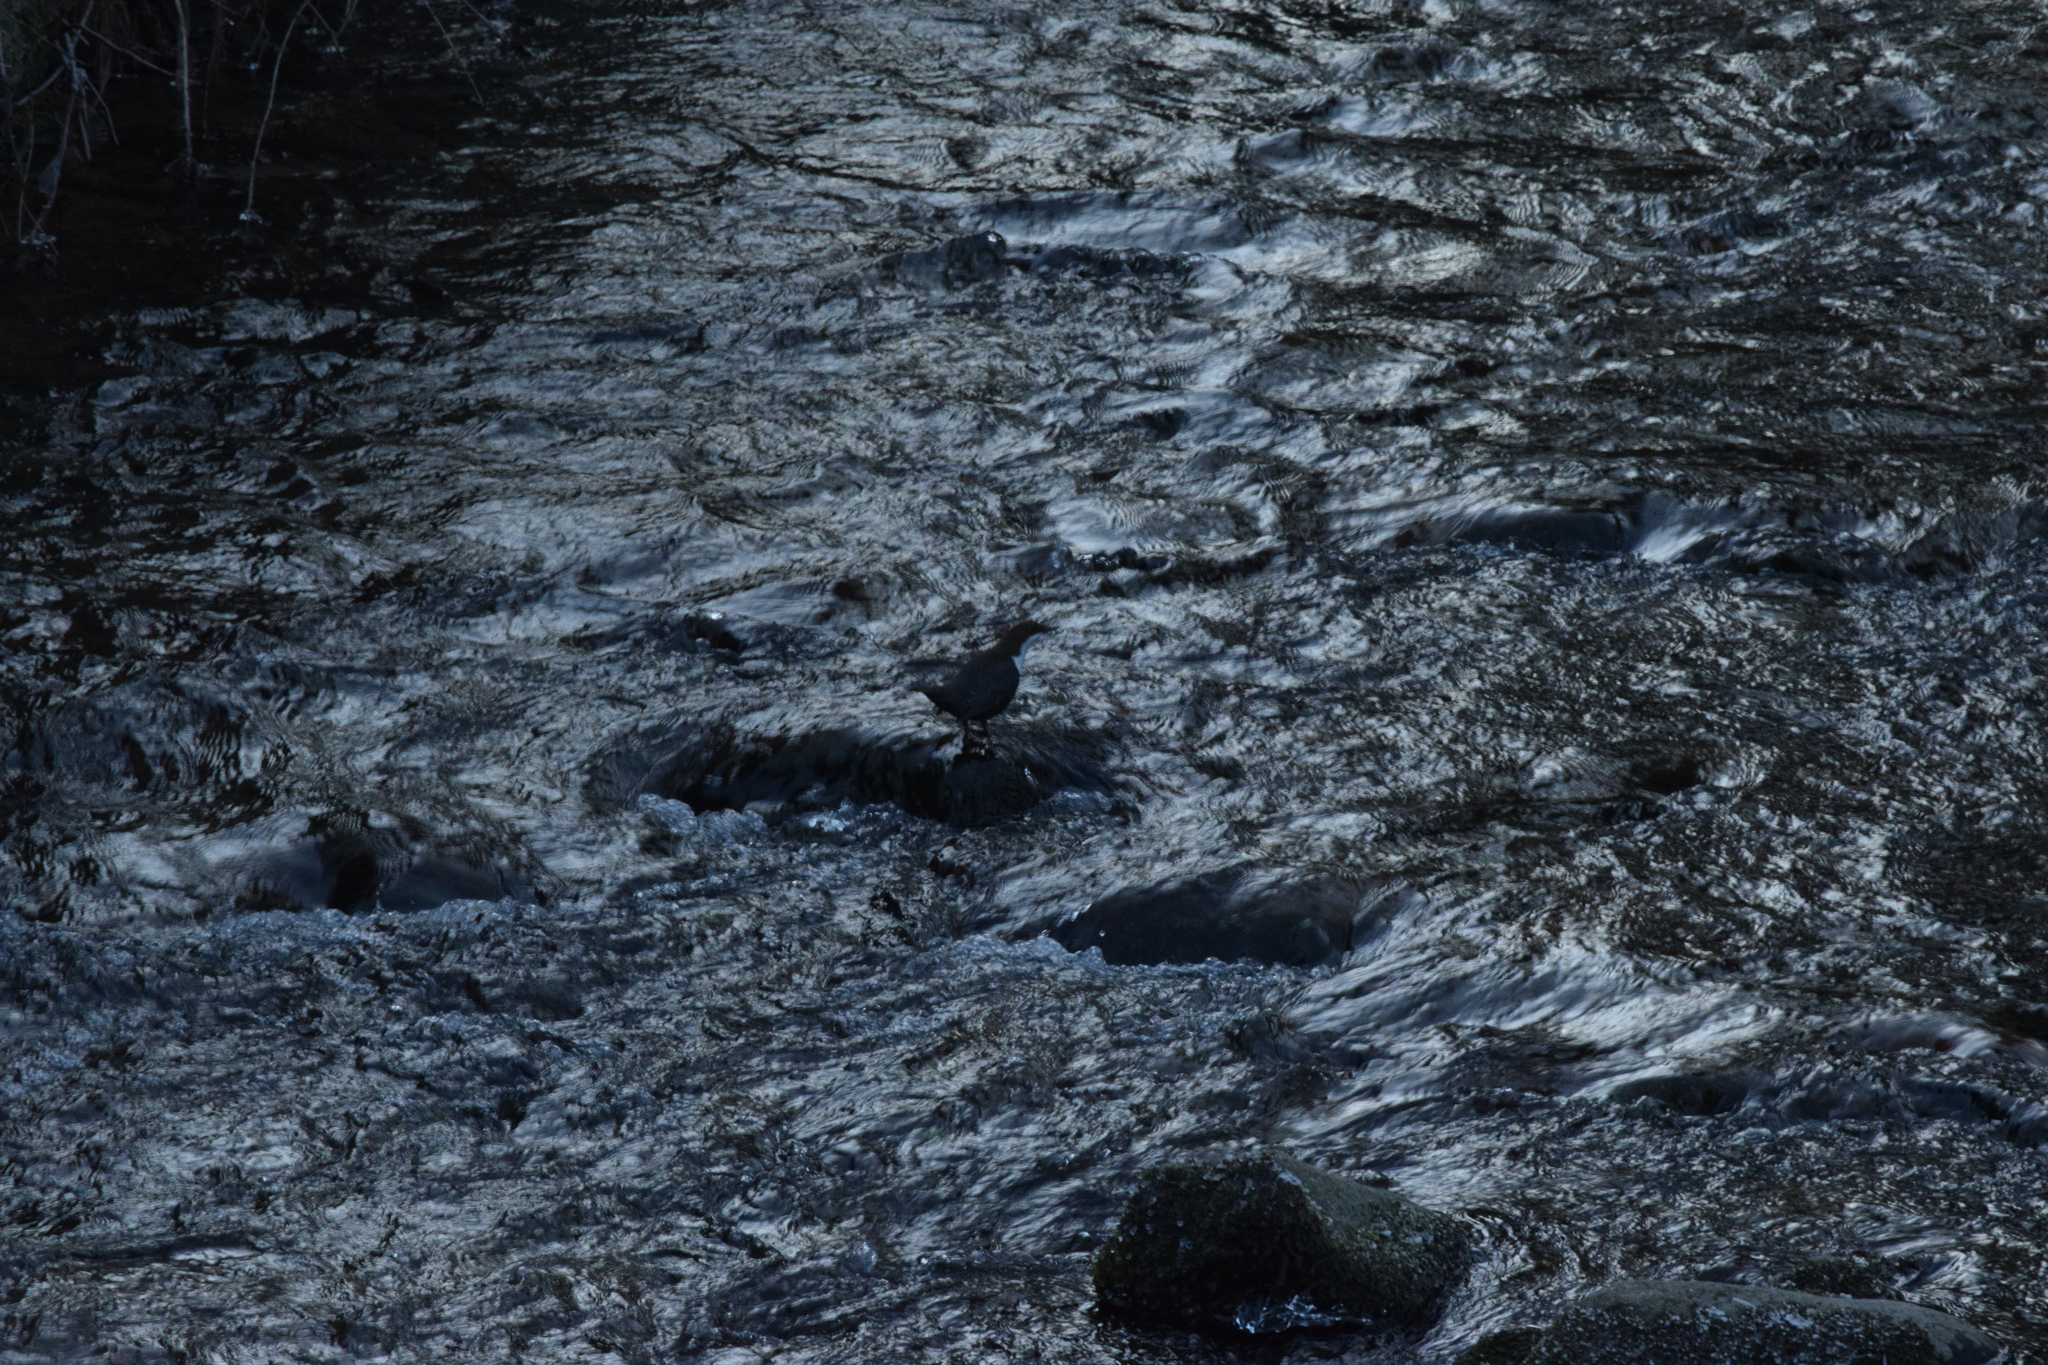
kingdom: Animalia
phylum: Chordata
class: Aves
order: Passeriformes
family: Cinclidae
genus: Cinclus
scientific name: Cinclus cinclus
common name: White-throated dipper
